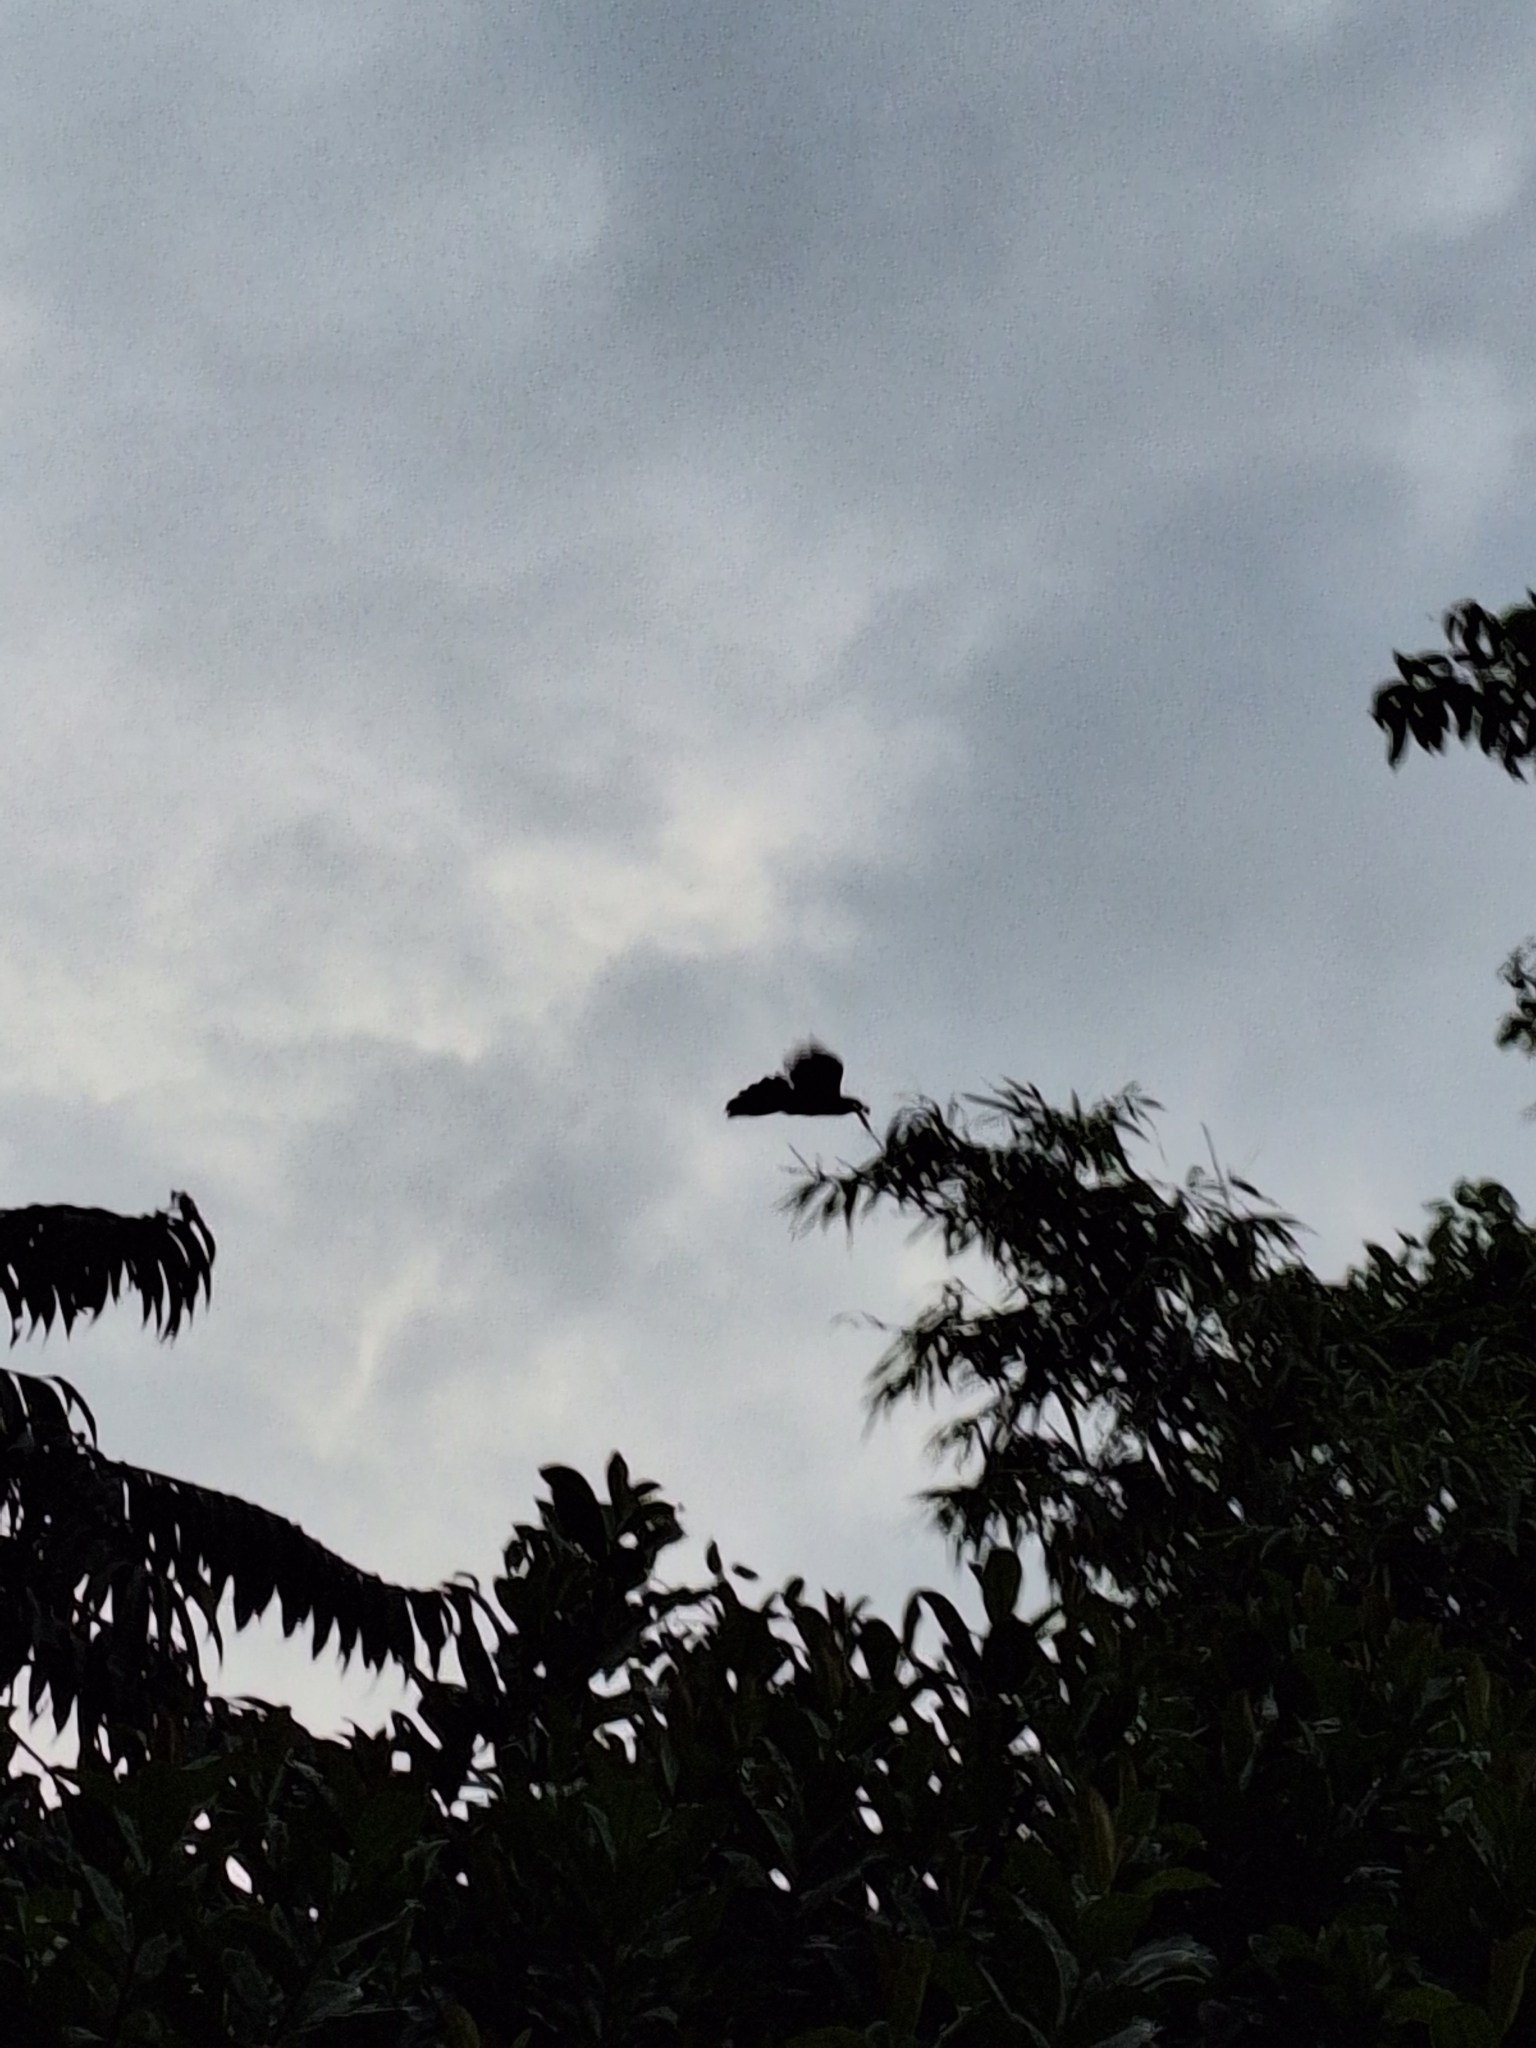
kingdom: Animalia
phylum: Chordata
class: Aves
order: Cuculiformes
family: Cuculidae
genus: Eudynamys
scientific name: Eudynamys scolopaceus
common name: Asian koel
